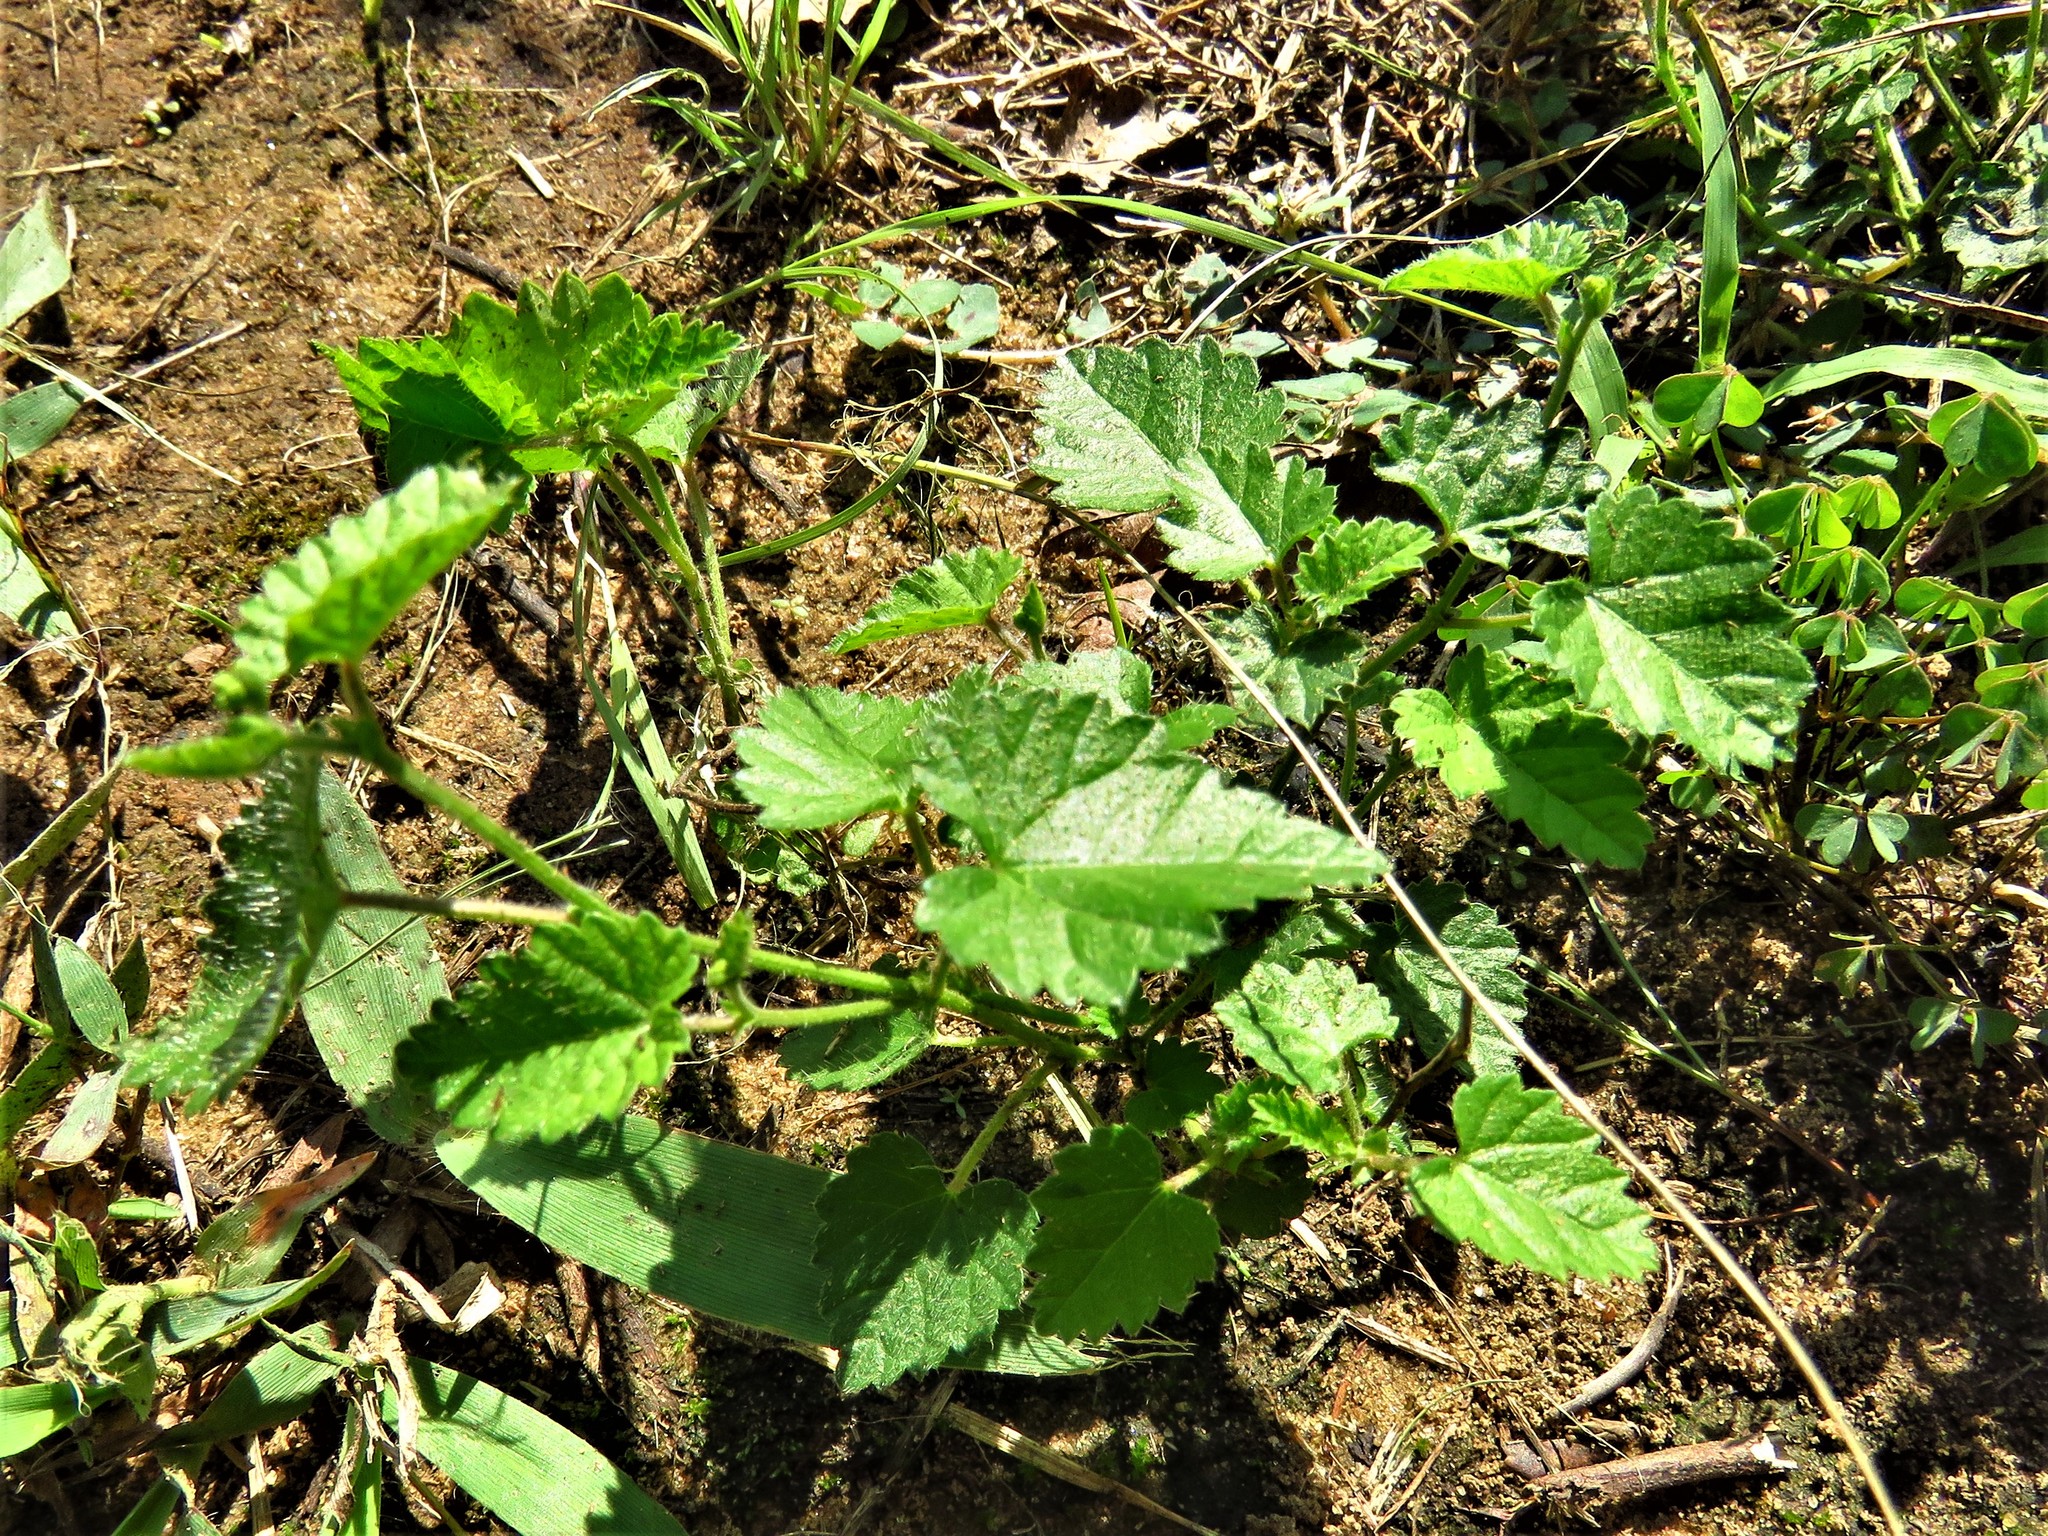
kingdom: Plantae
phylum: Tracheophyta
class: Magnoliopsida
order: Malpighiales
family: Euphorbiaceae
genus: Tragia
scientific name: Tragia urticifolia
